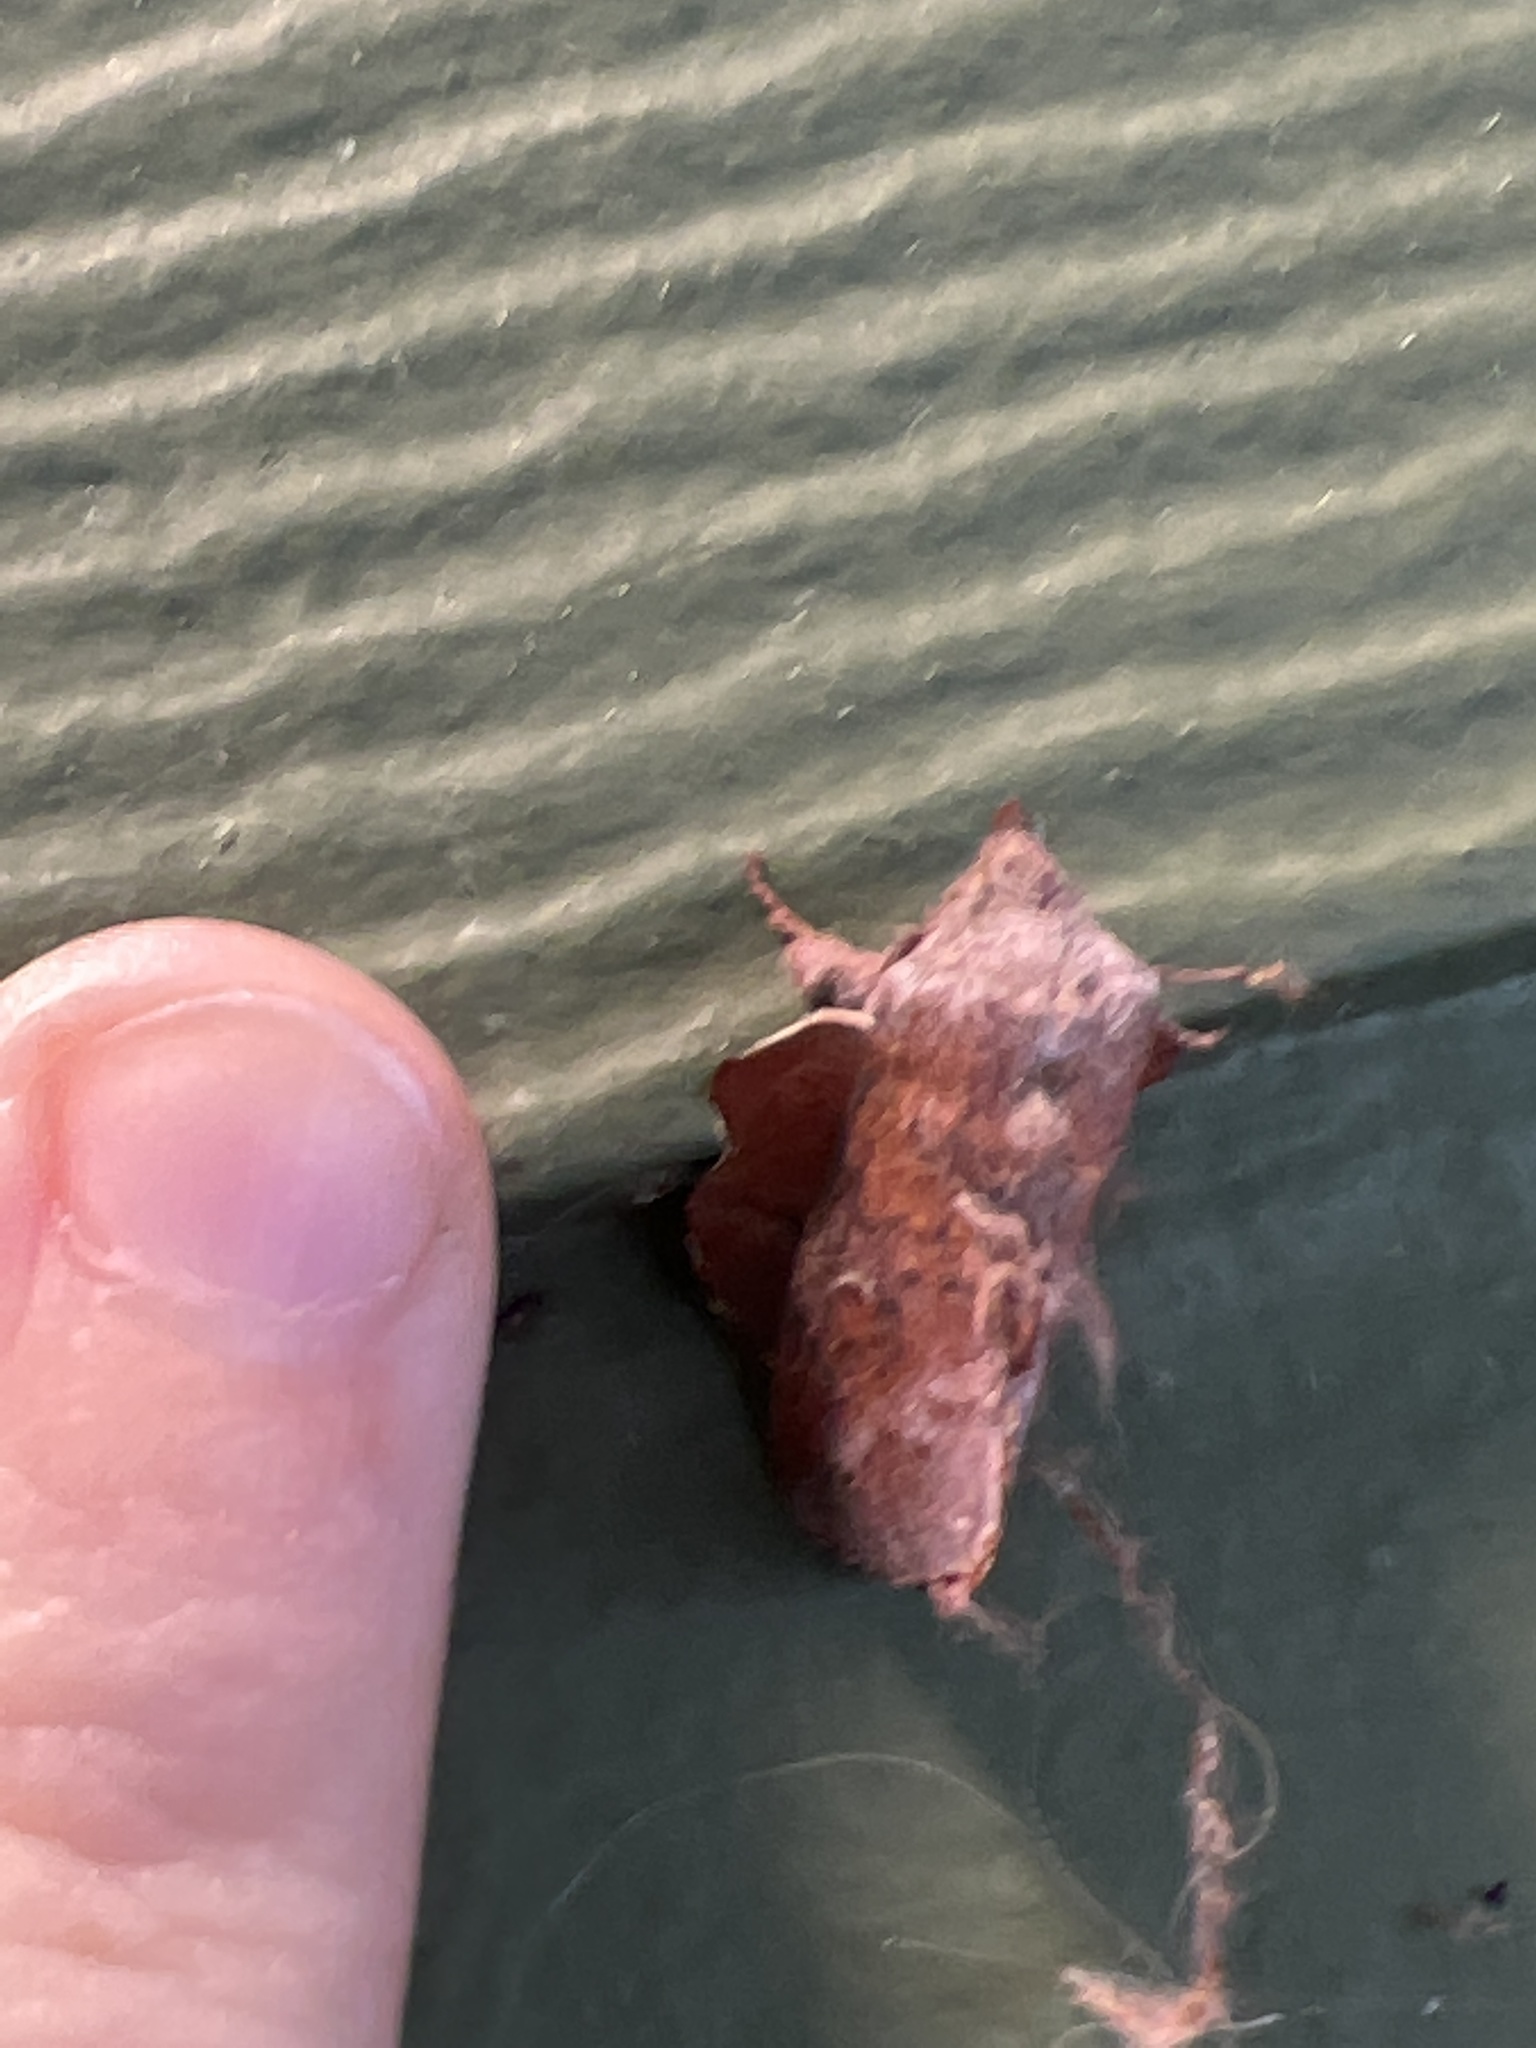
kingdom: Animalia
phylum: Arthropoda
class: Insecta
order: Lepidoptera
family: Lasiocampidae
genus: Phyllodesma
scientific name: Phyllodesma americana
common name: American lappet moth
